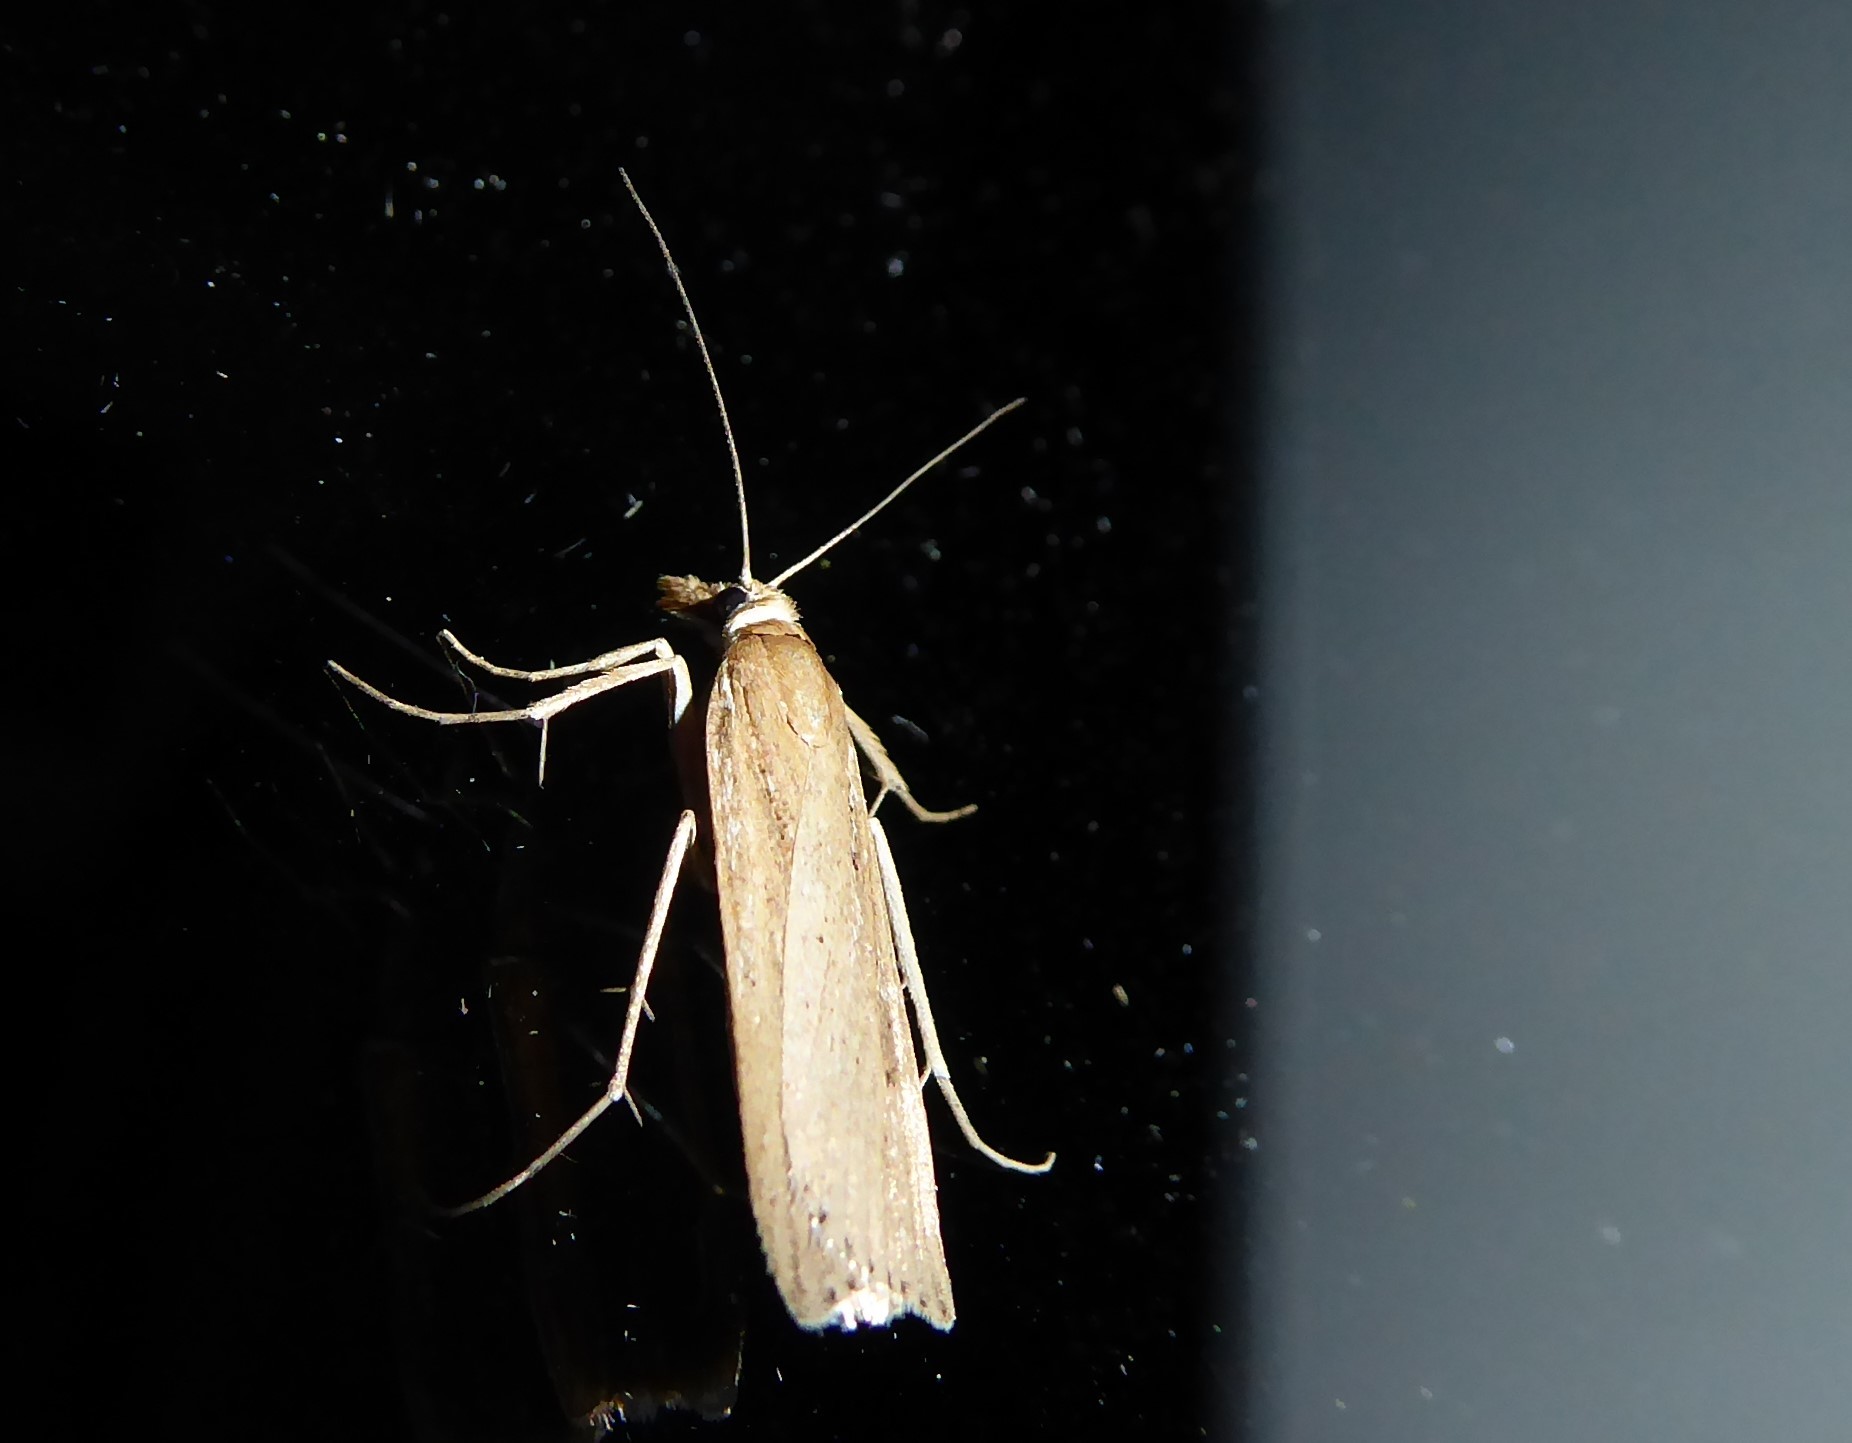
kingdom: Animalia
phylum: Arthropoda
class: Insecta
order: Lepidoptera
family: Crambidae
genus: Eudonia
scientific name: Eudonia sabulosella
